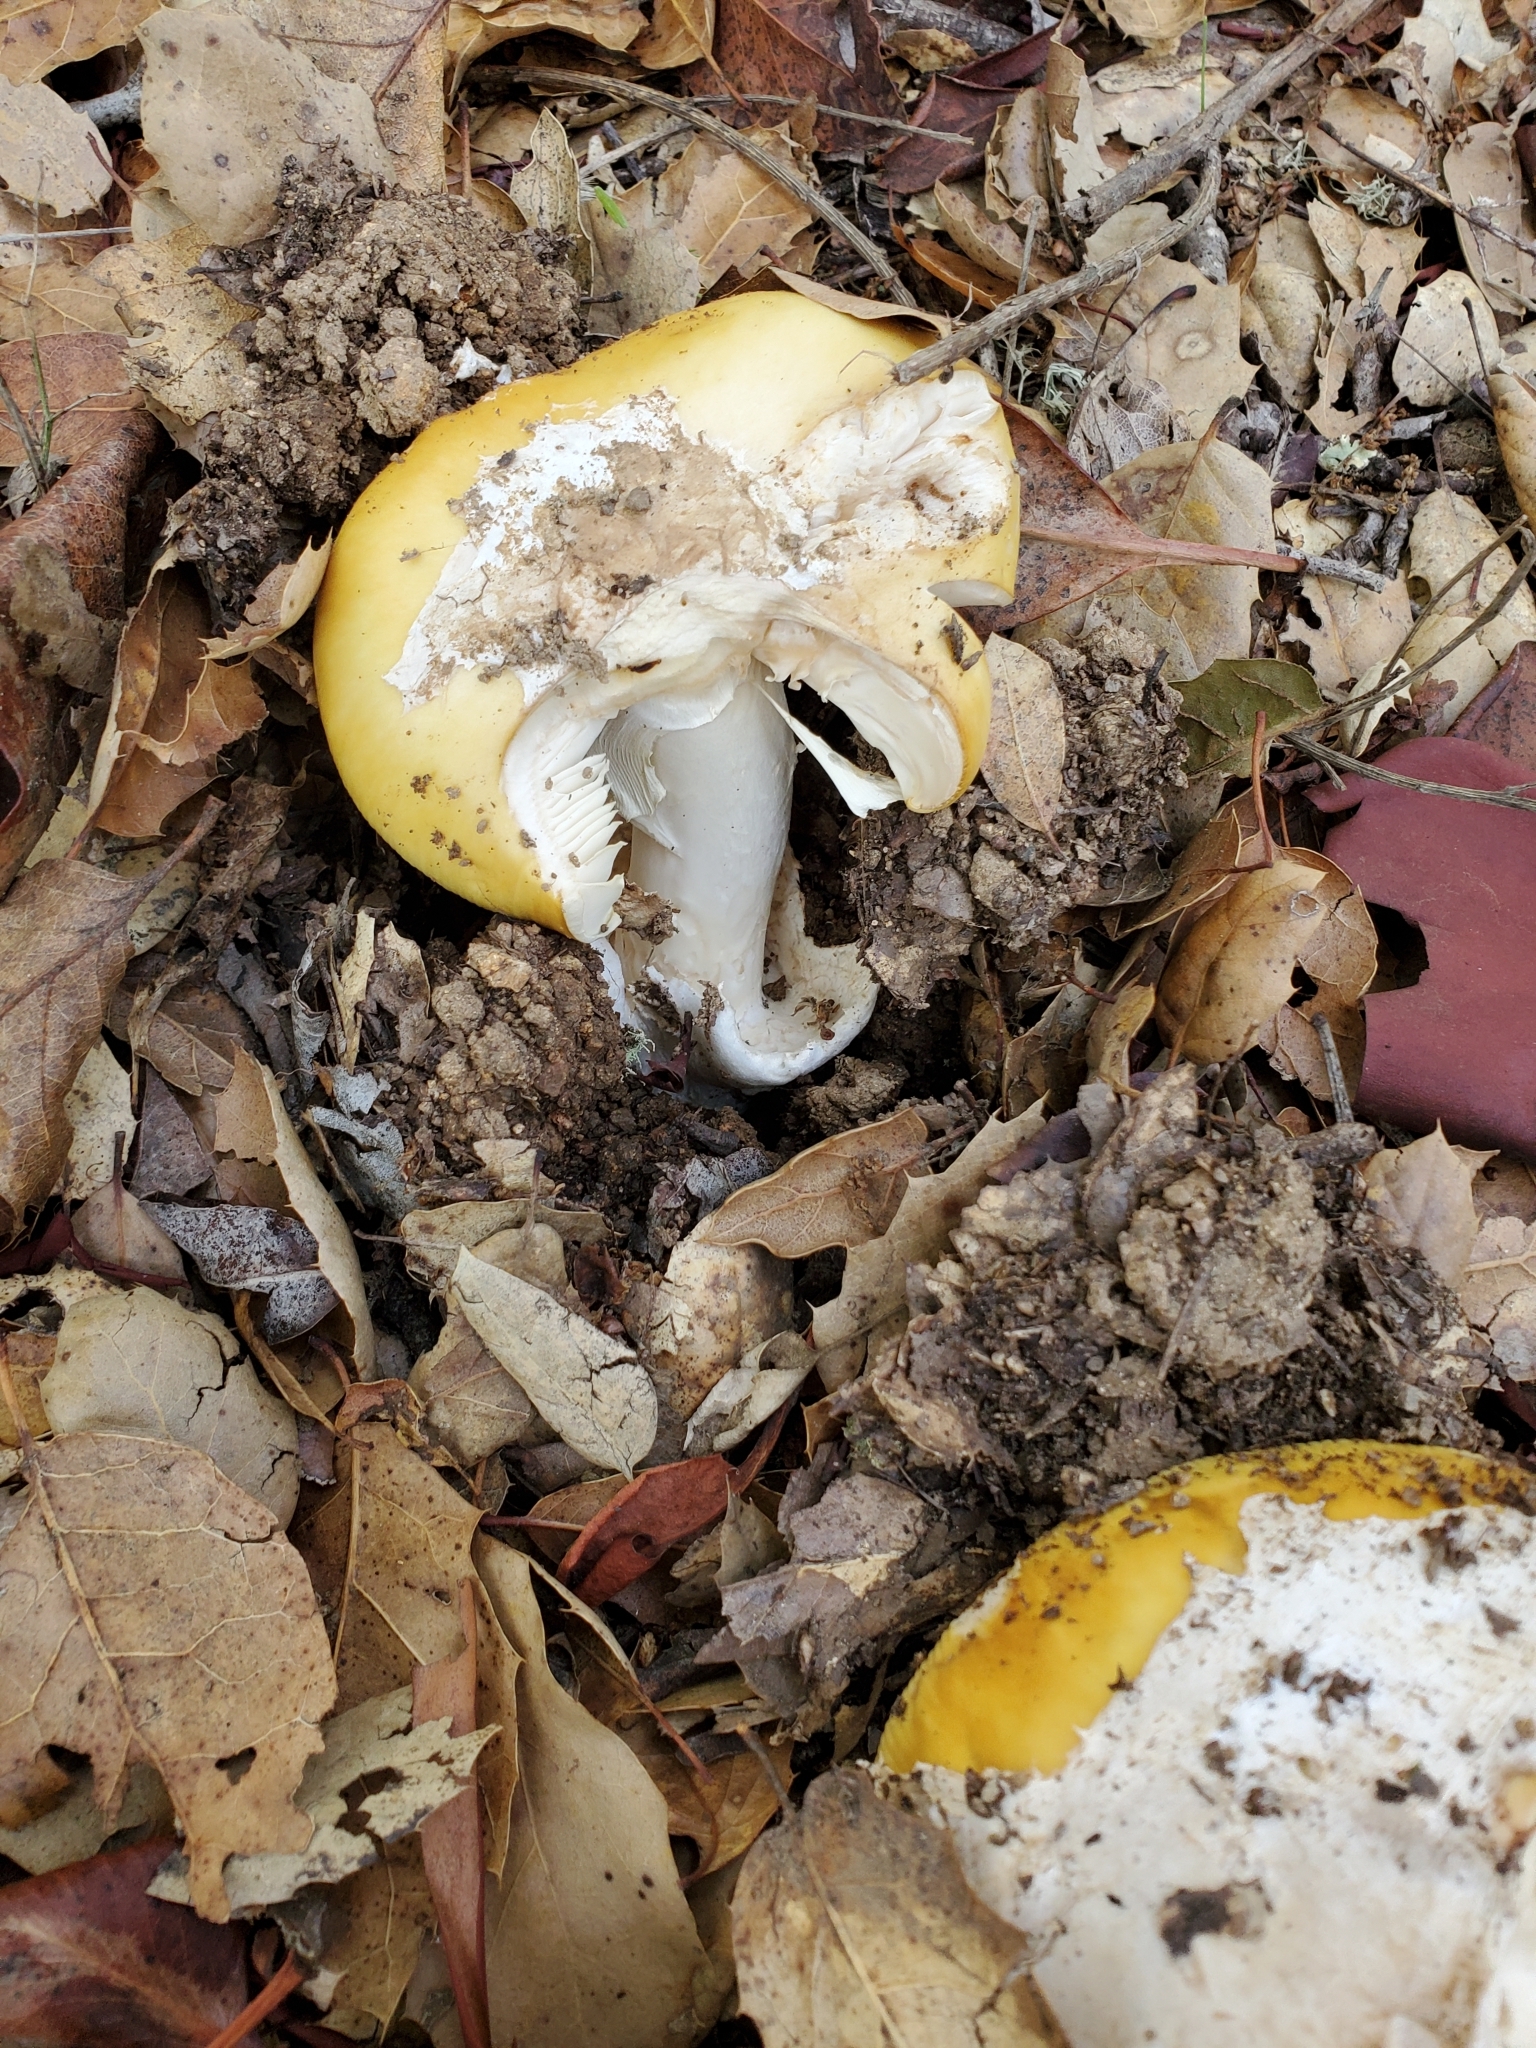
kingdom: Fungi
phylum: Basidiomycota
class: Agaricomycetes
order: Agaricales
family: Amanitaceae
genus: Amanita
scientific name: Amanita calyptroderma
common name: Coccora
